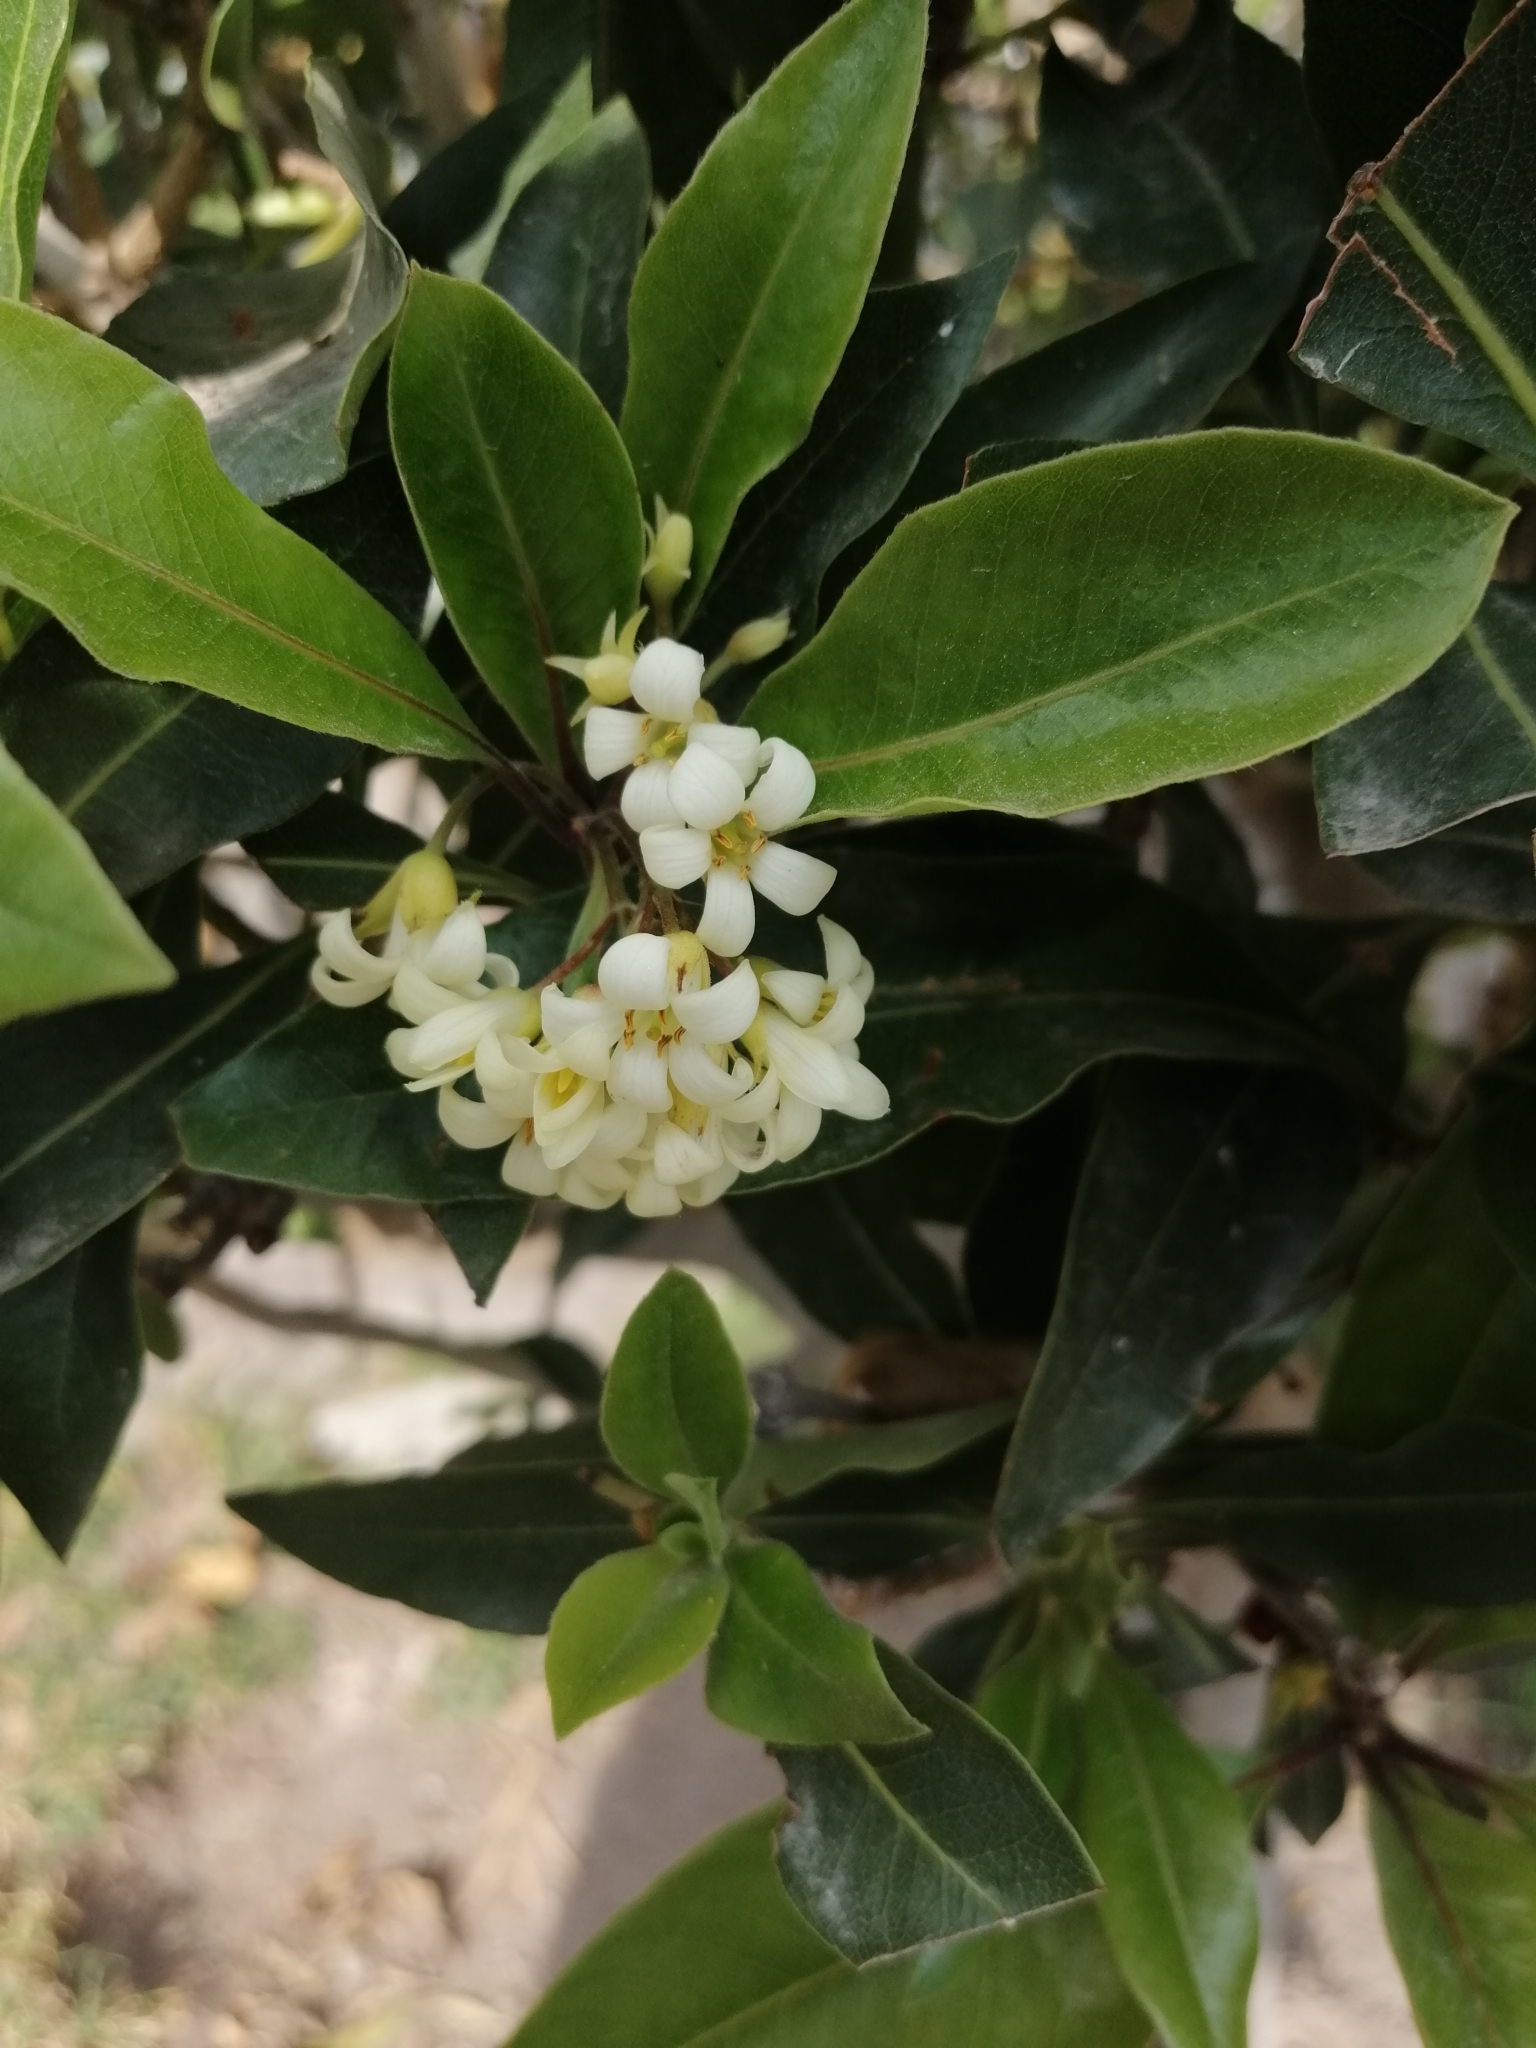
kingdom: Plantae
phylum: Tracheophyta
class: Magnoliopsida
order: Apiales
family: Pittosporaceae
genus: Pittosporum
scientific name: Pittosporum undulatum
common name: Australian cheesewood
